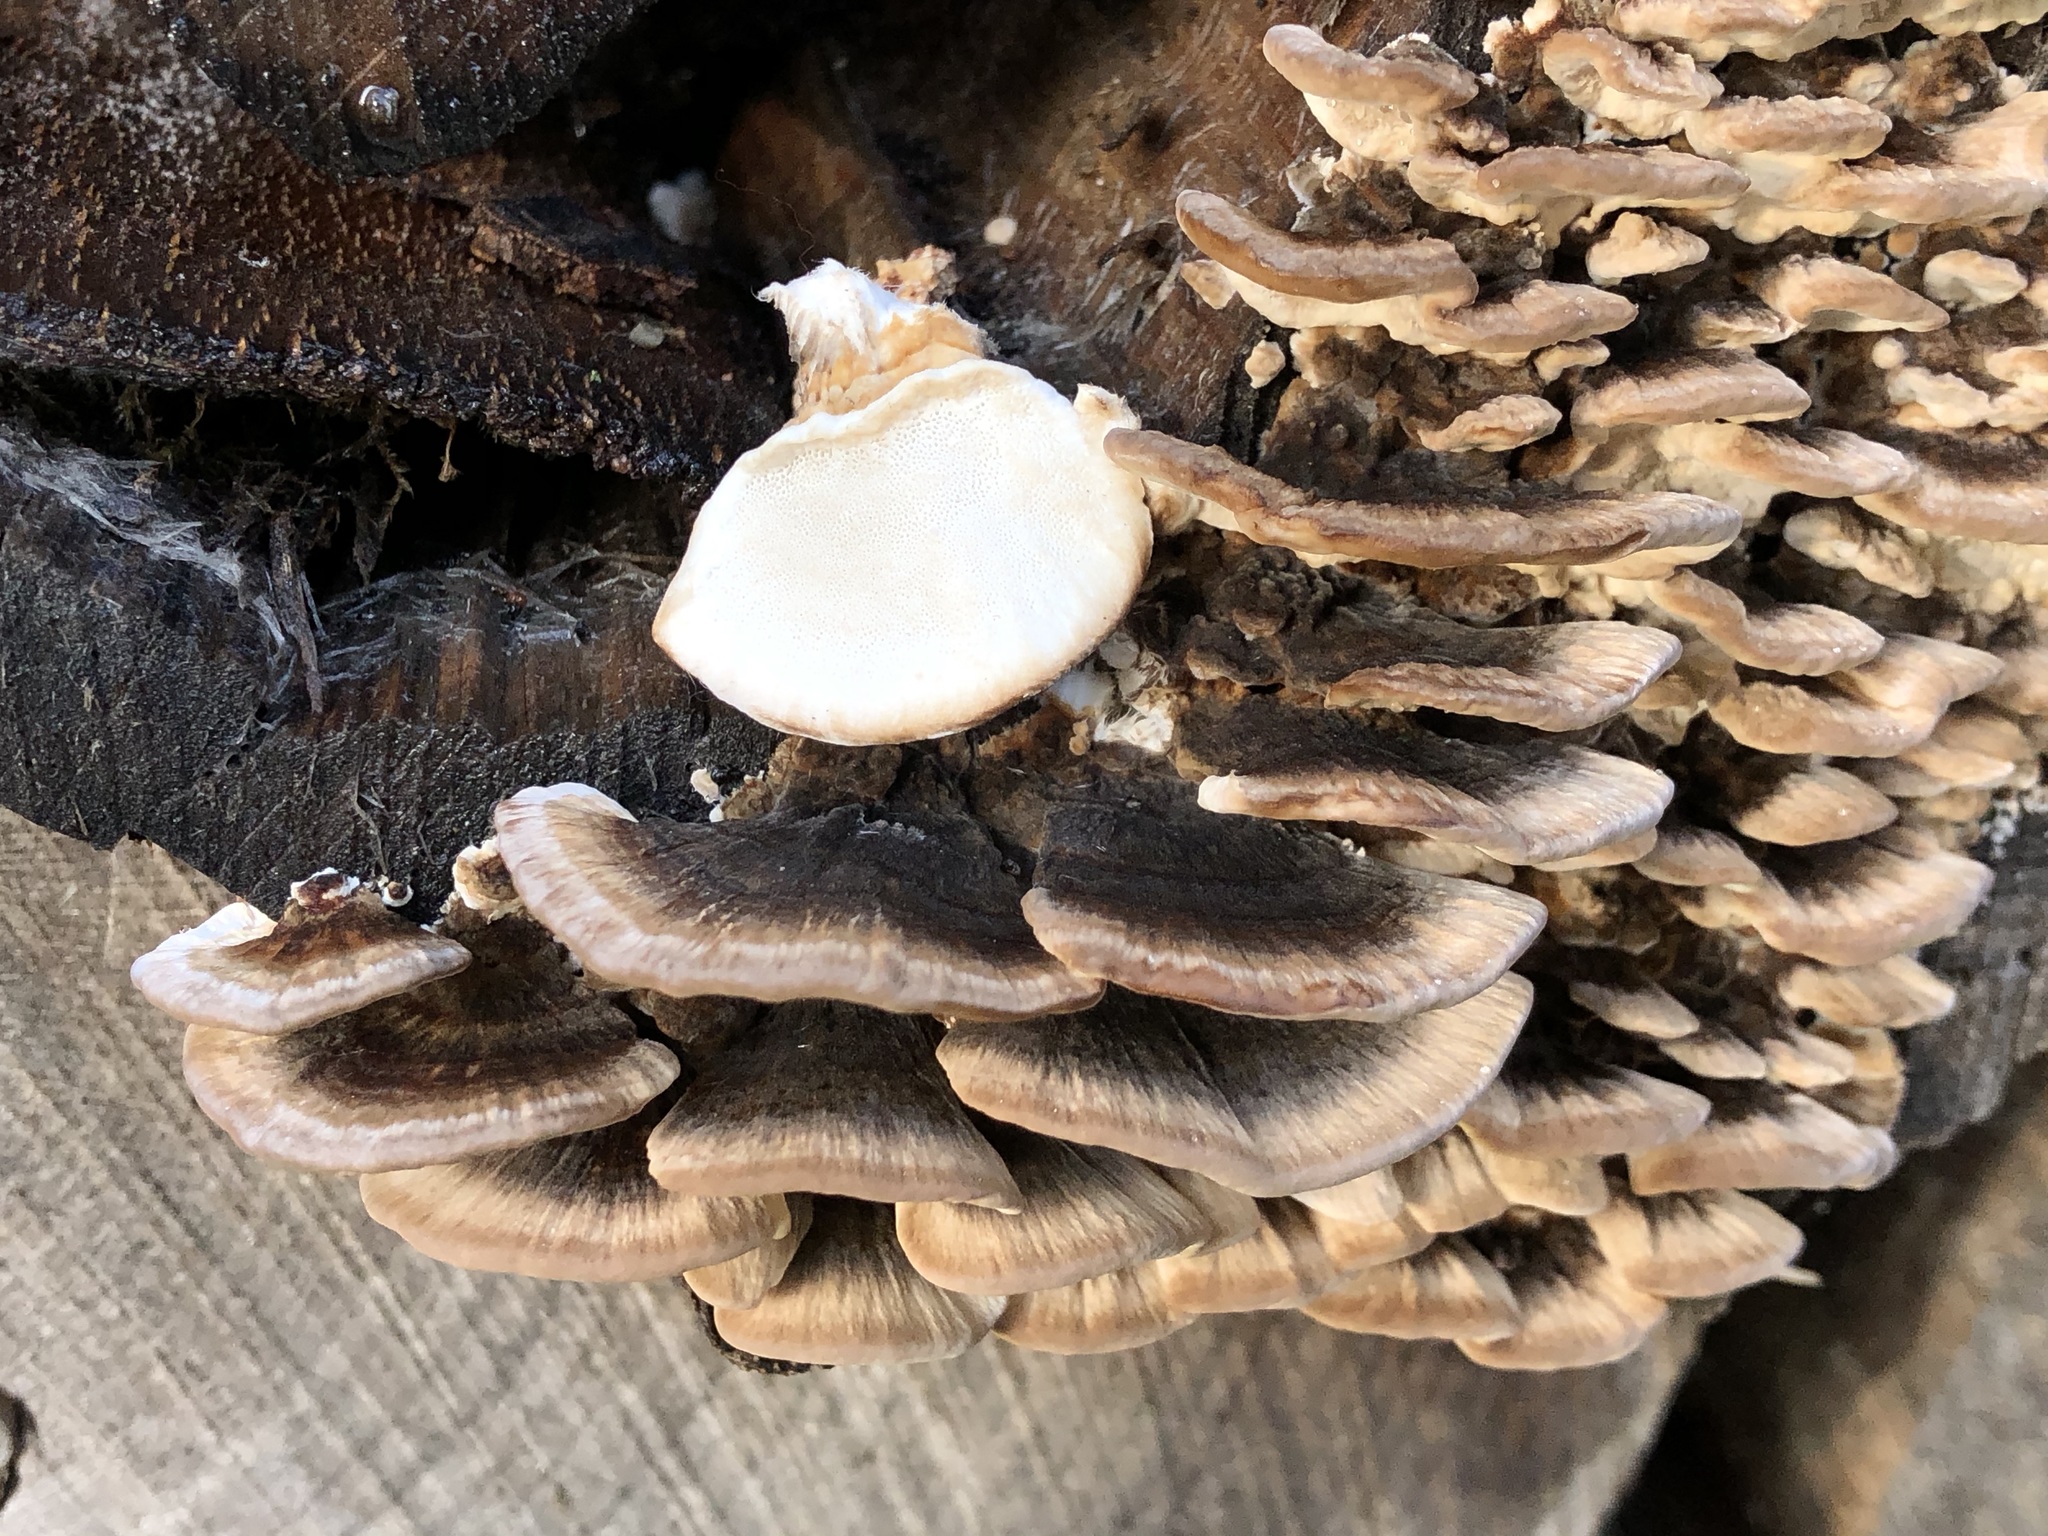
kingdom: Fungi
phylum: Basidiomycota
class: Agaricomycetes
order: Polyporales
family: Polyporaceae
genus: Trametes
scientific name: Trametes versicolor
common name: Turkeytail
